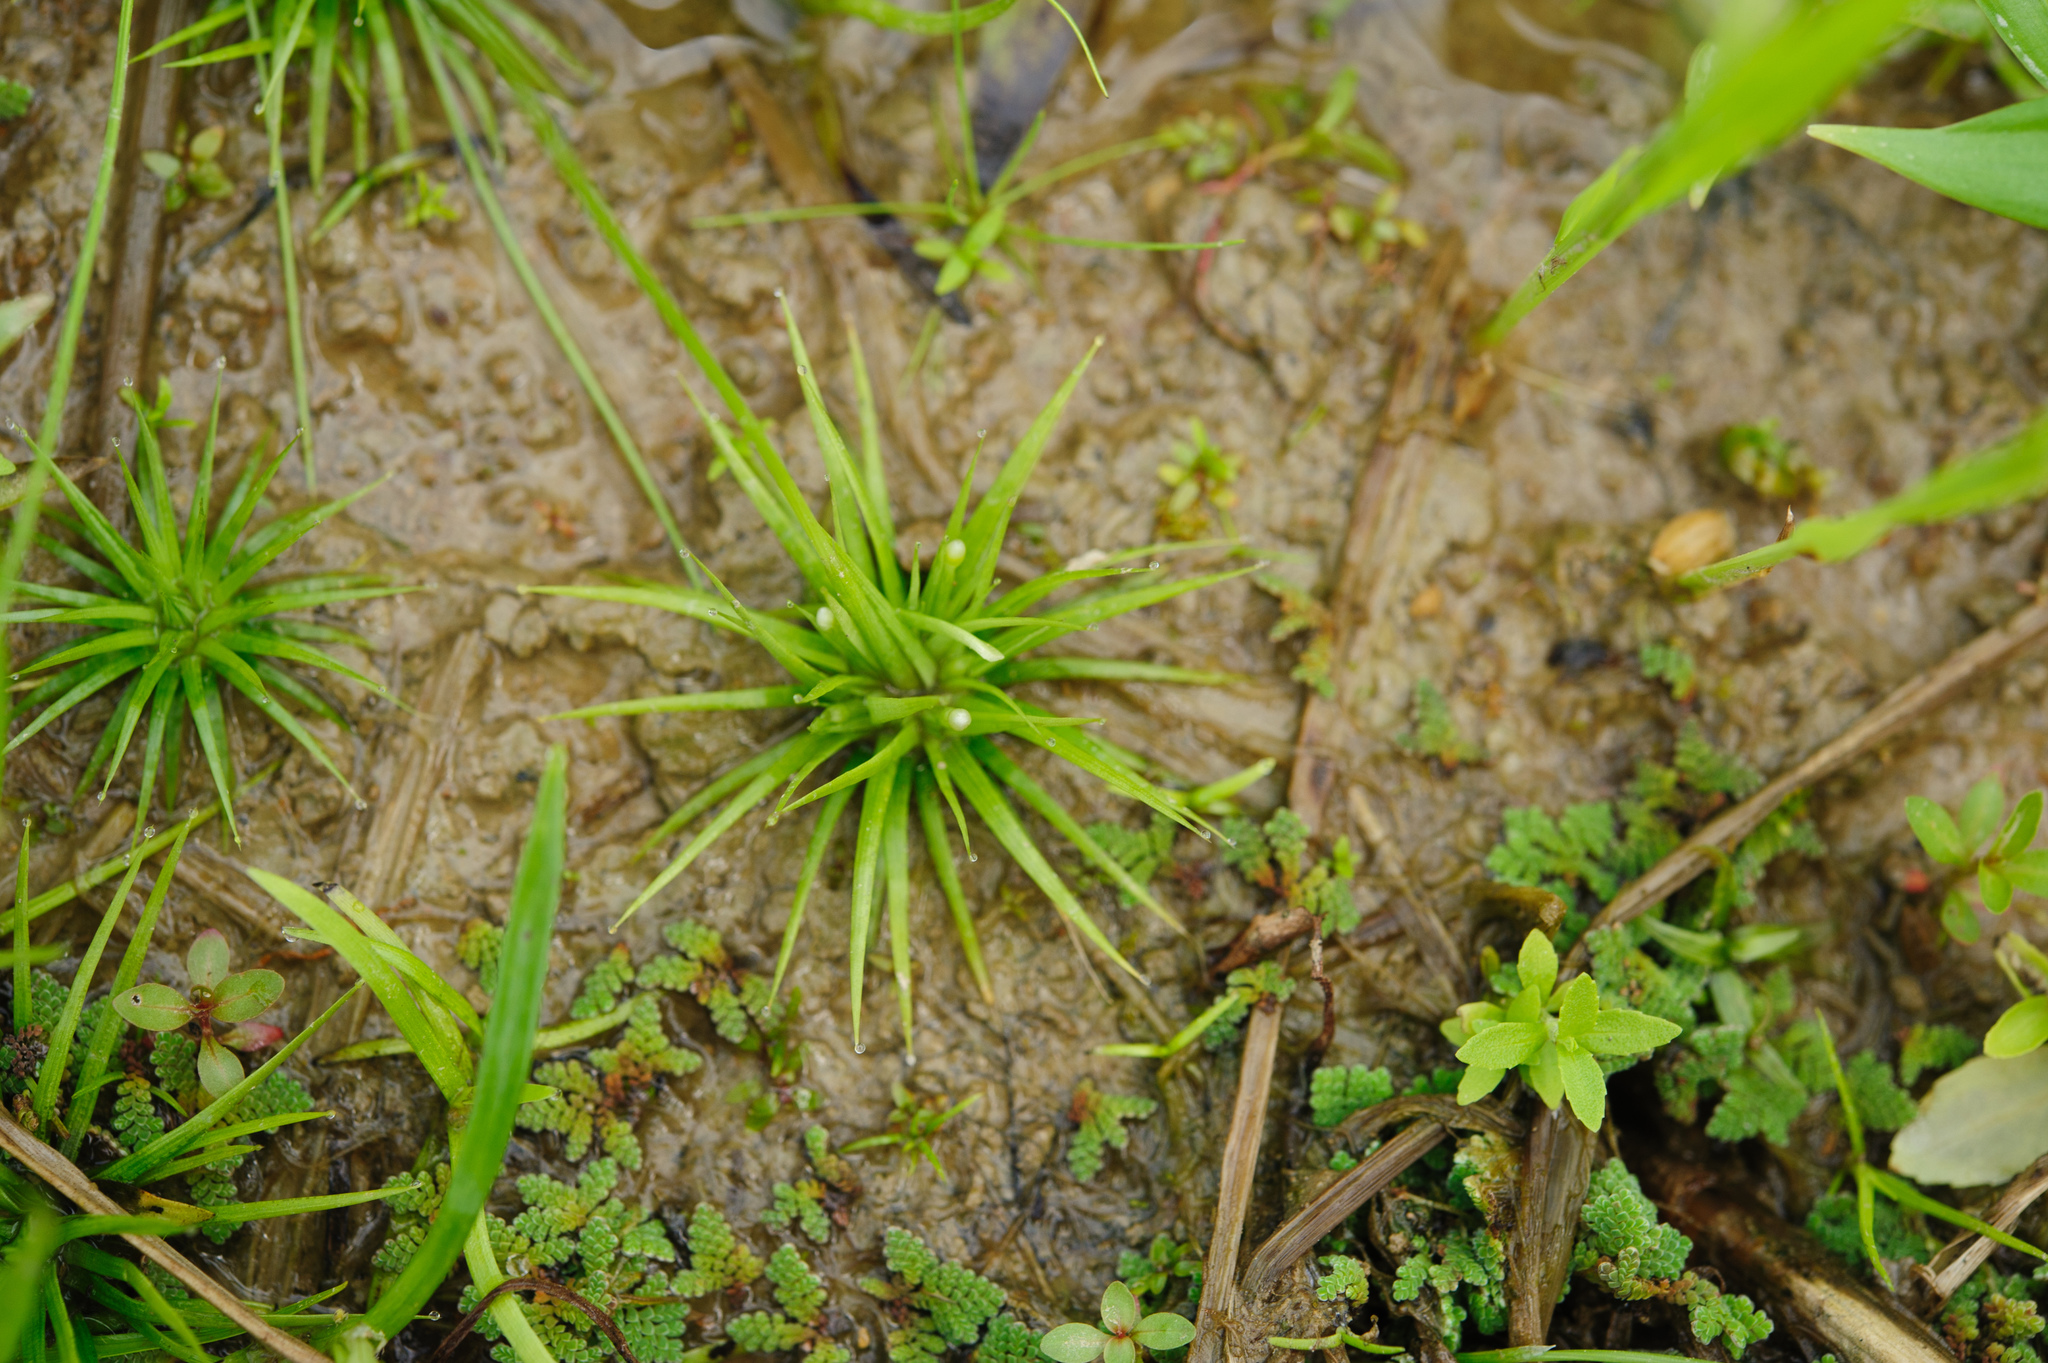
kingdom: Plantae
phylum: Tracheophyta
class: Liliopsida
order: Poales
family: Eriocaulaceae
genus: Eriocaulon
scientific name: Eriocaulon cinereum
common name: Ashy pipewort
